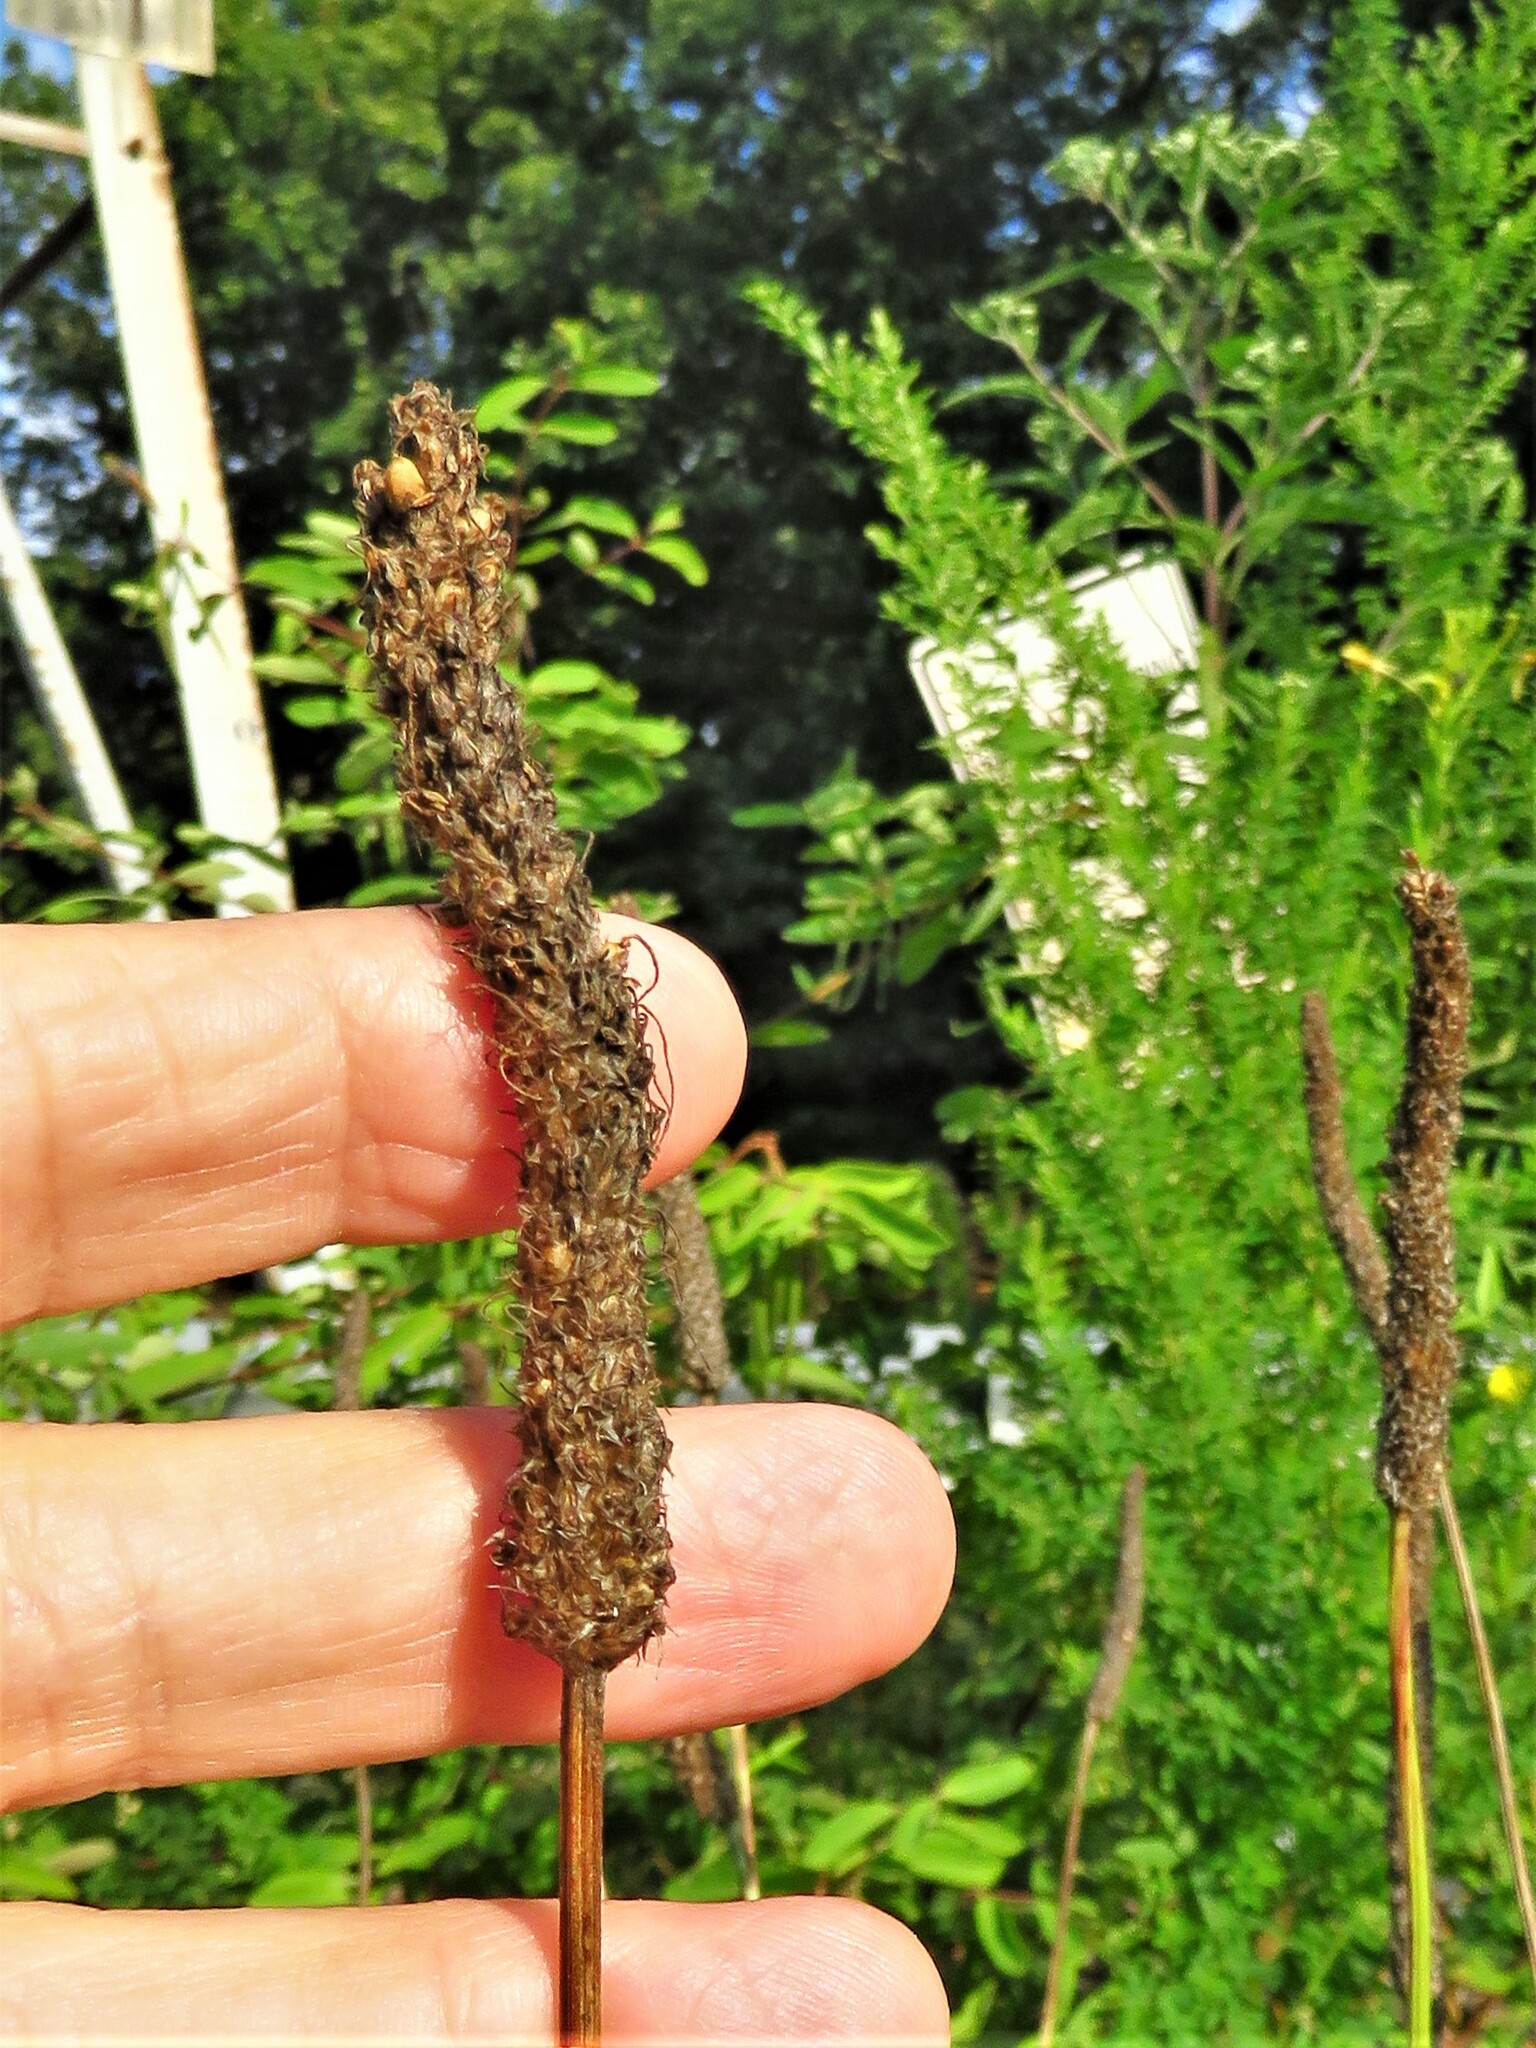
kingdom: Plantae
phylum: Tracheophyta
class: Magnoliopsida
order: Lamiales
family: Plantaginaceae
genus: Plantago
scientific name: Plantago lanceolata
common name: Ribwort plantain
